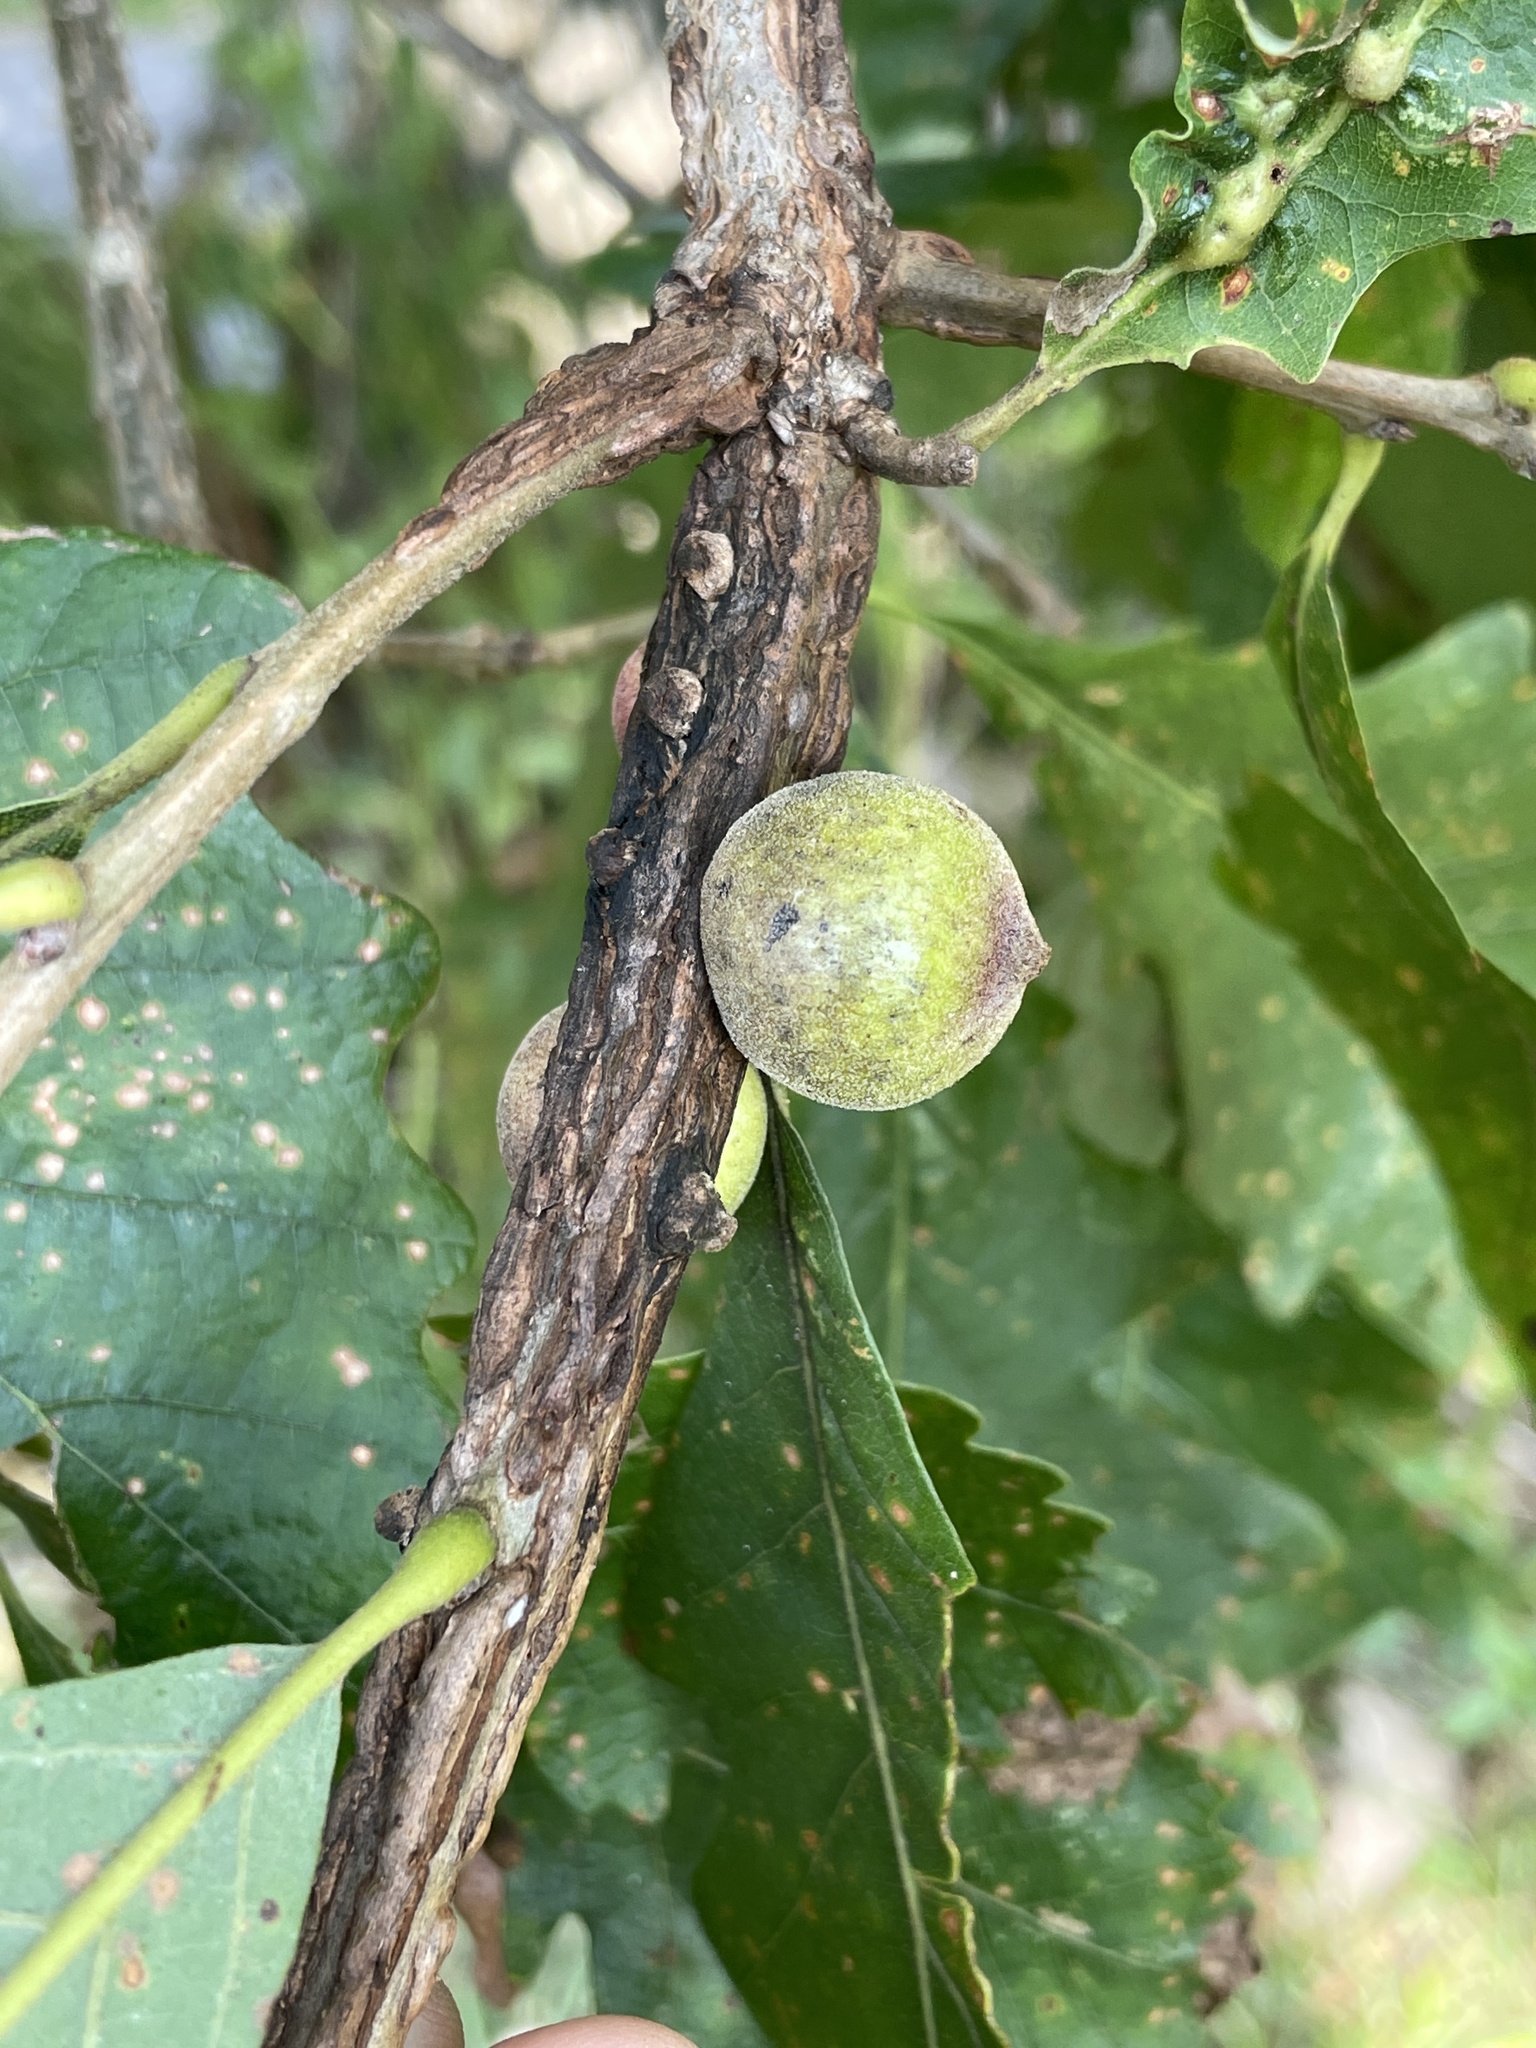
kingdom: Animalia
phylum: Arthropoda
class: Insecta
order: Hymenoptera
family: Cynipidae
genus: Disholcaspis
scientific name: Disholcaspis
